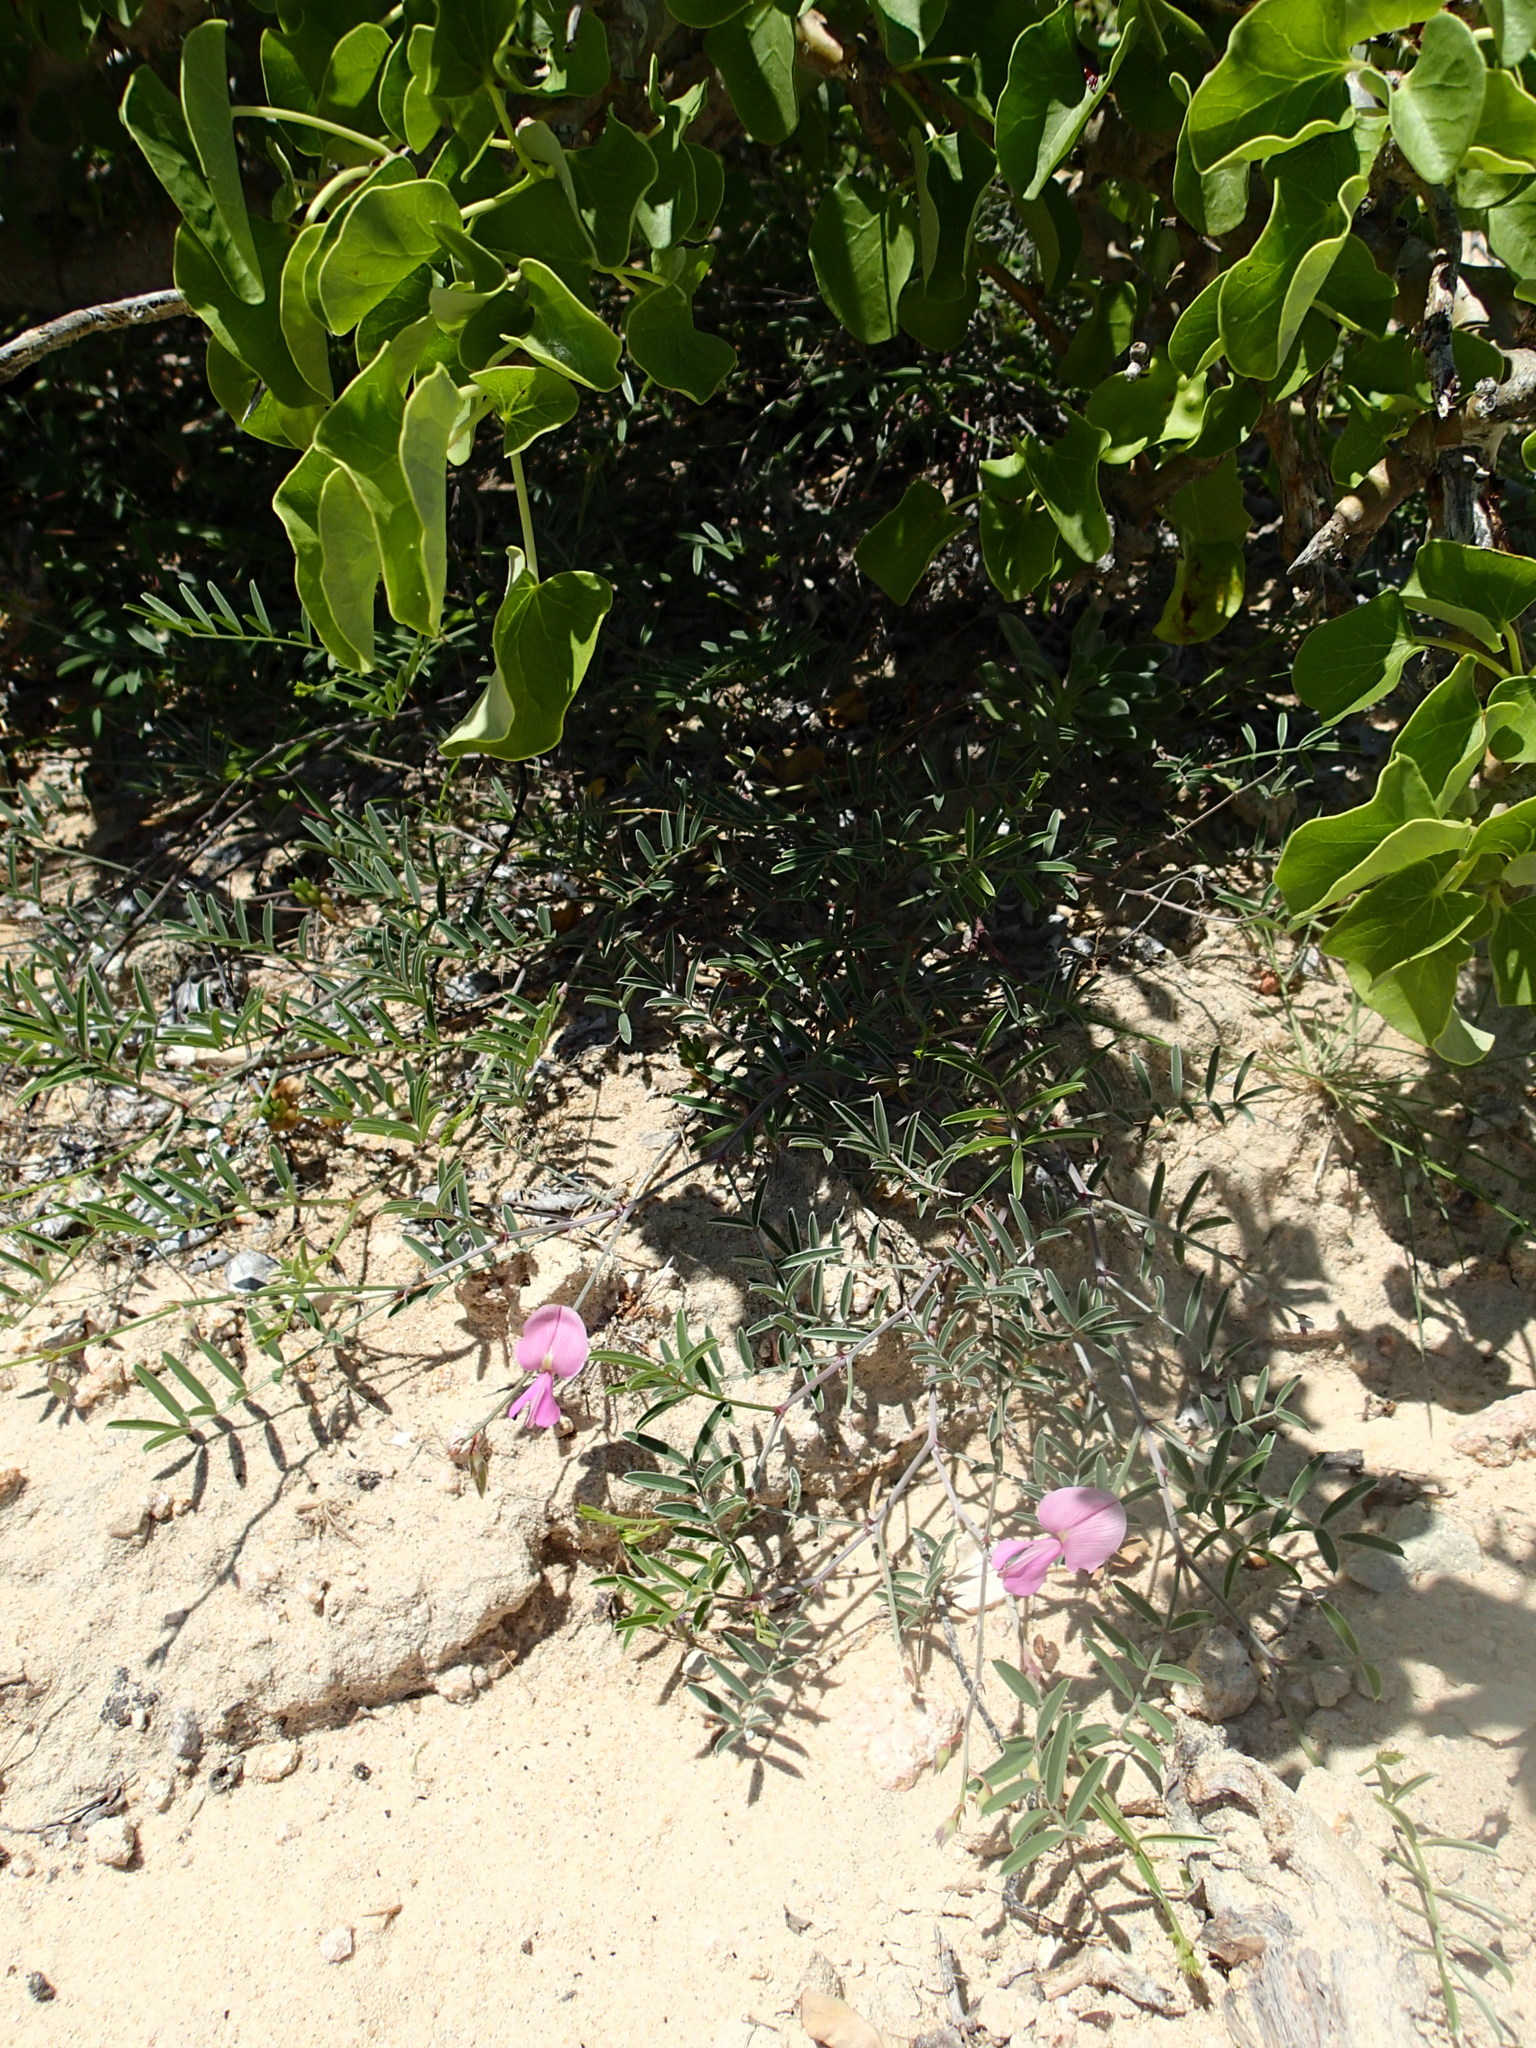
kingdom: Plantae
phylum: Tracheophyta
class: Magnoliopsida
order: Fabales
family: Fabaceae
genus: Tephrosia
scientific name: Tephrosia palmeri
